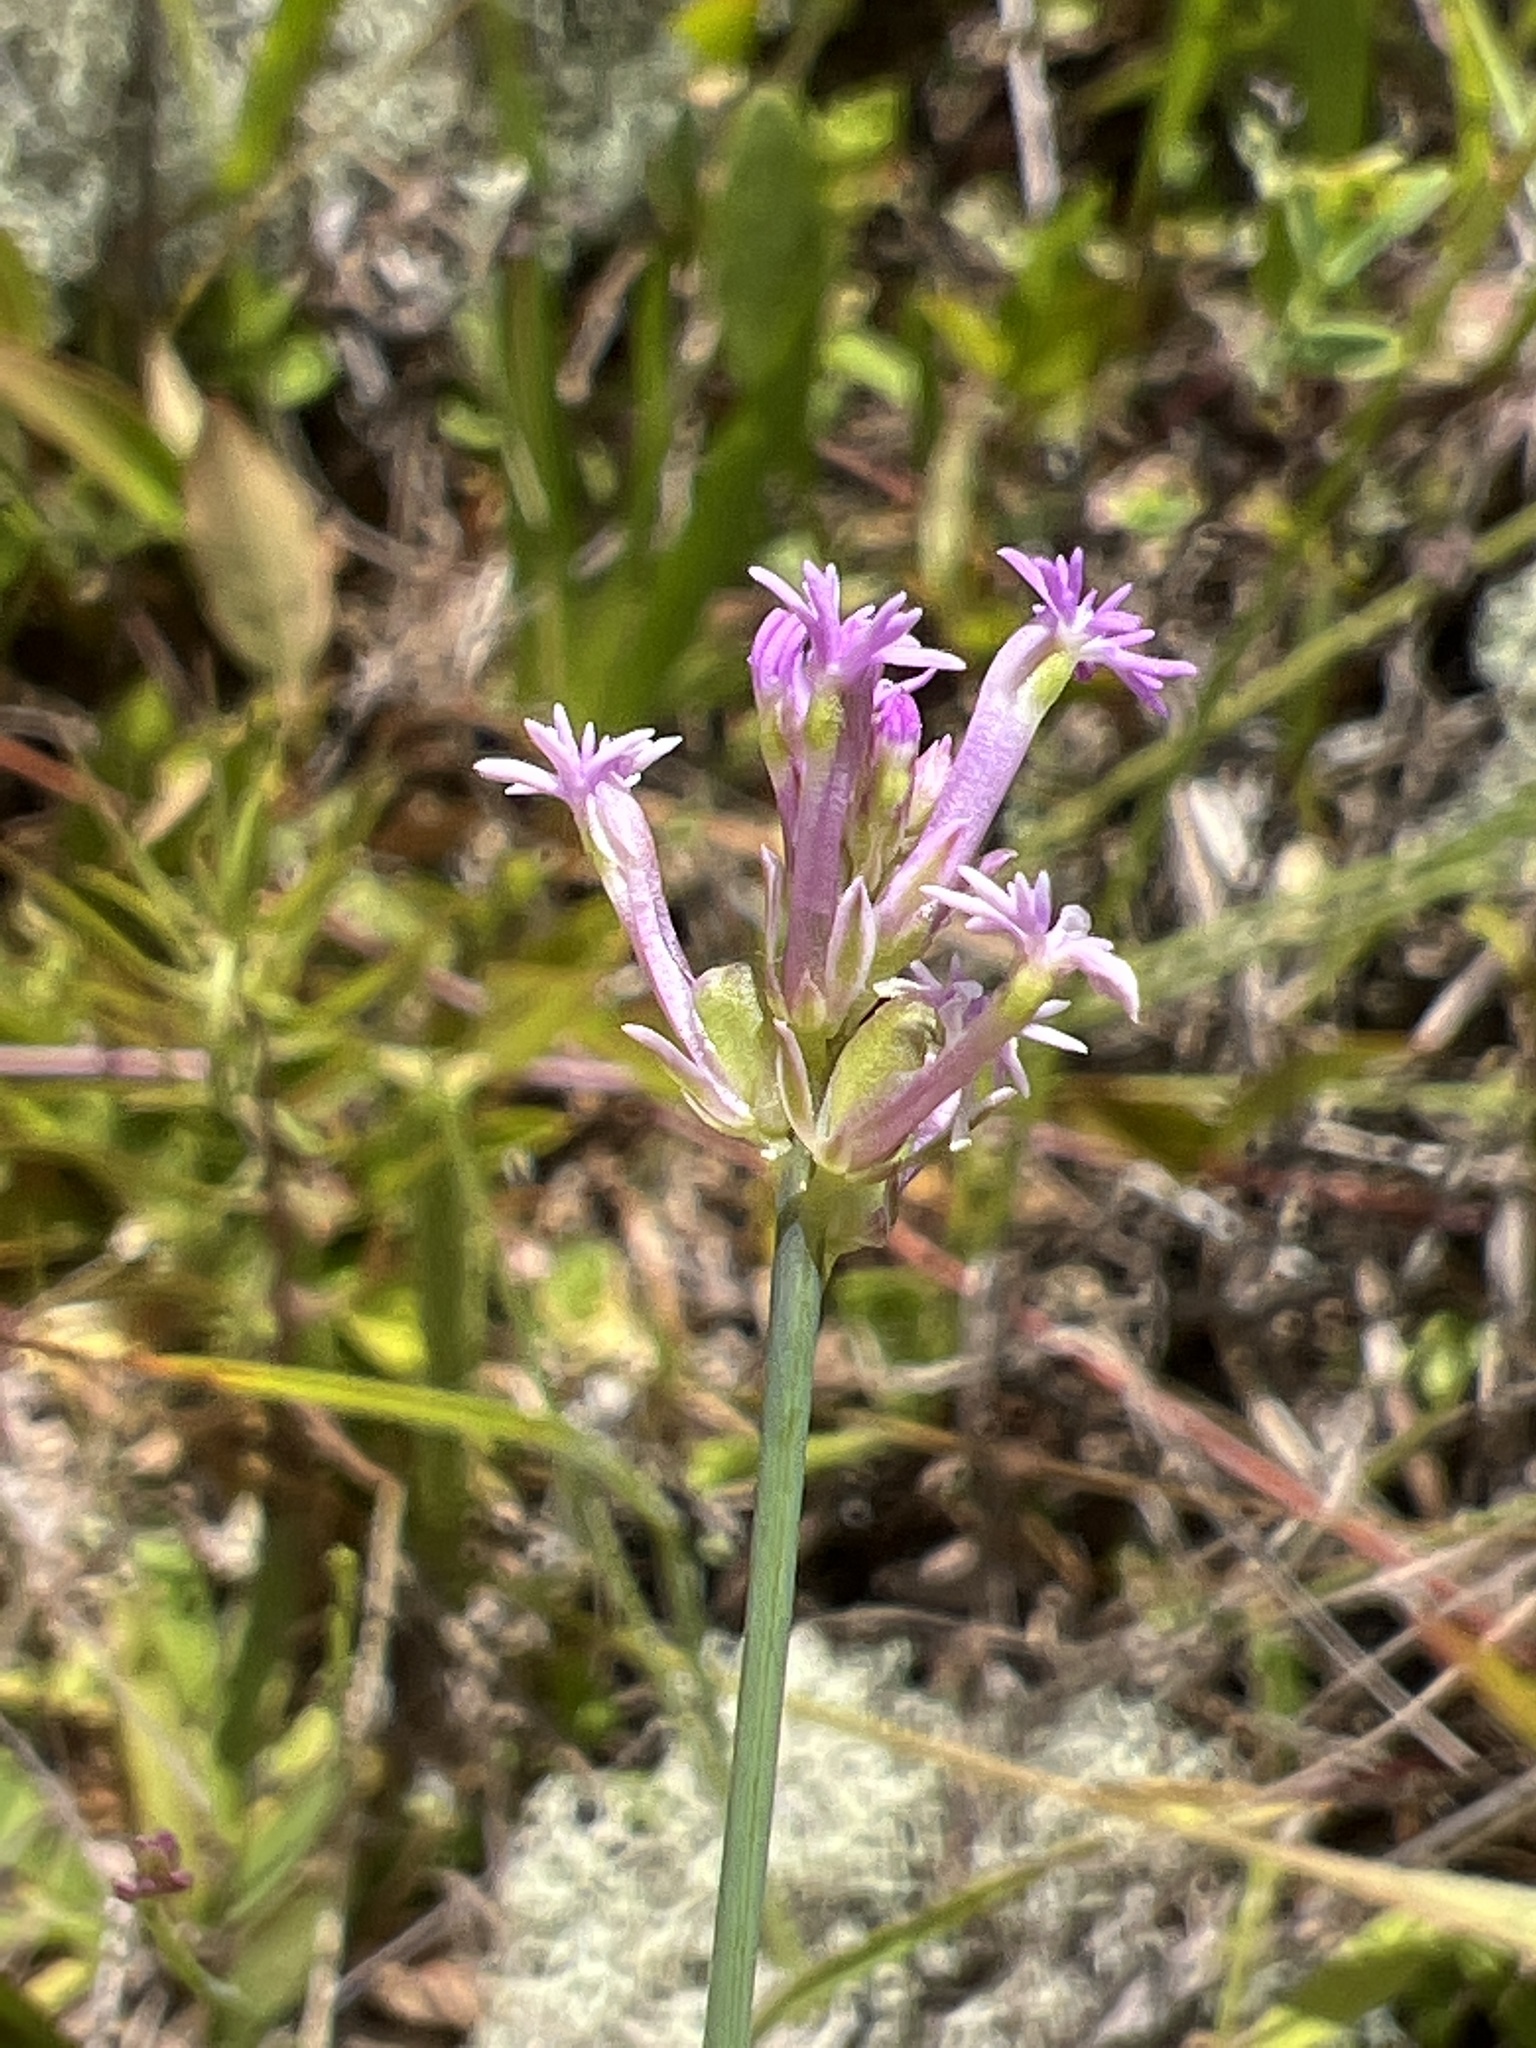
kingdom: Plantae
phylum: Tracheophyta
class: Magnoliopsida
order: Fabales
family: Polygalaceae
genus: Polygala
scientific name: Polygala incarnata
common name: Pink milkwort
